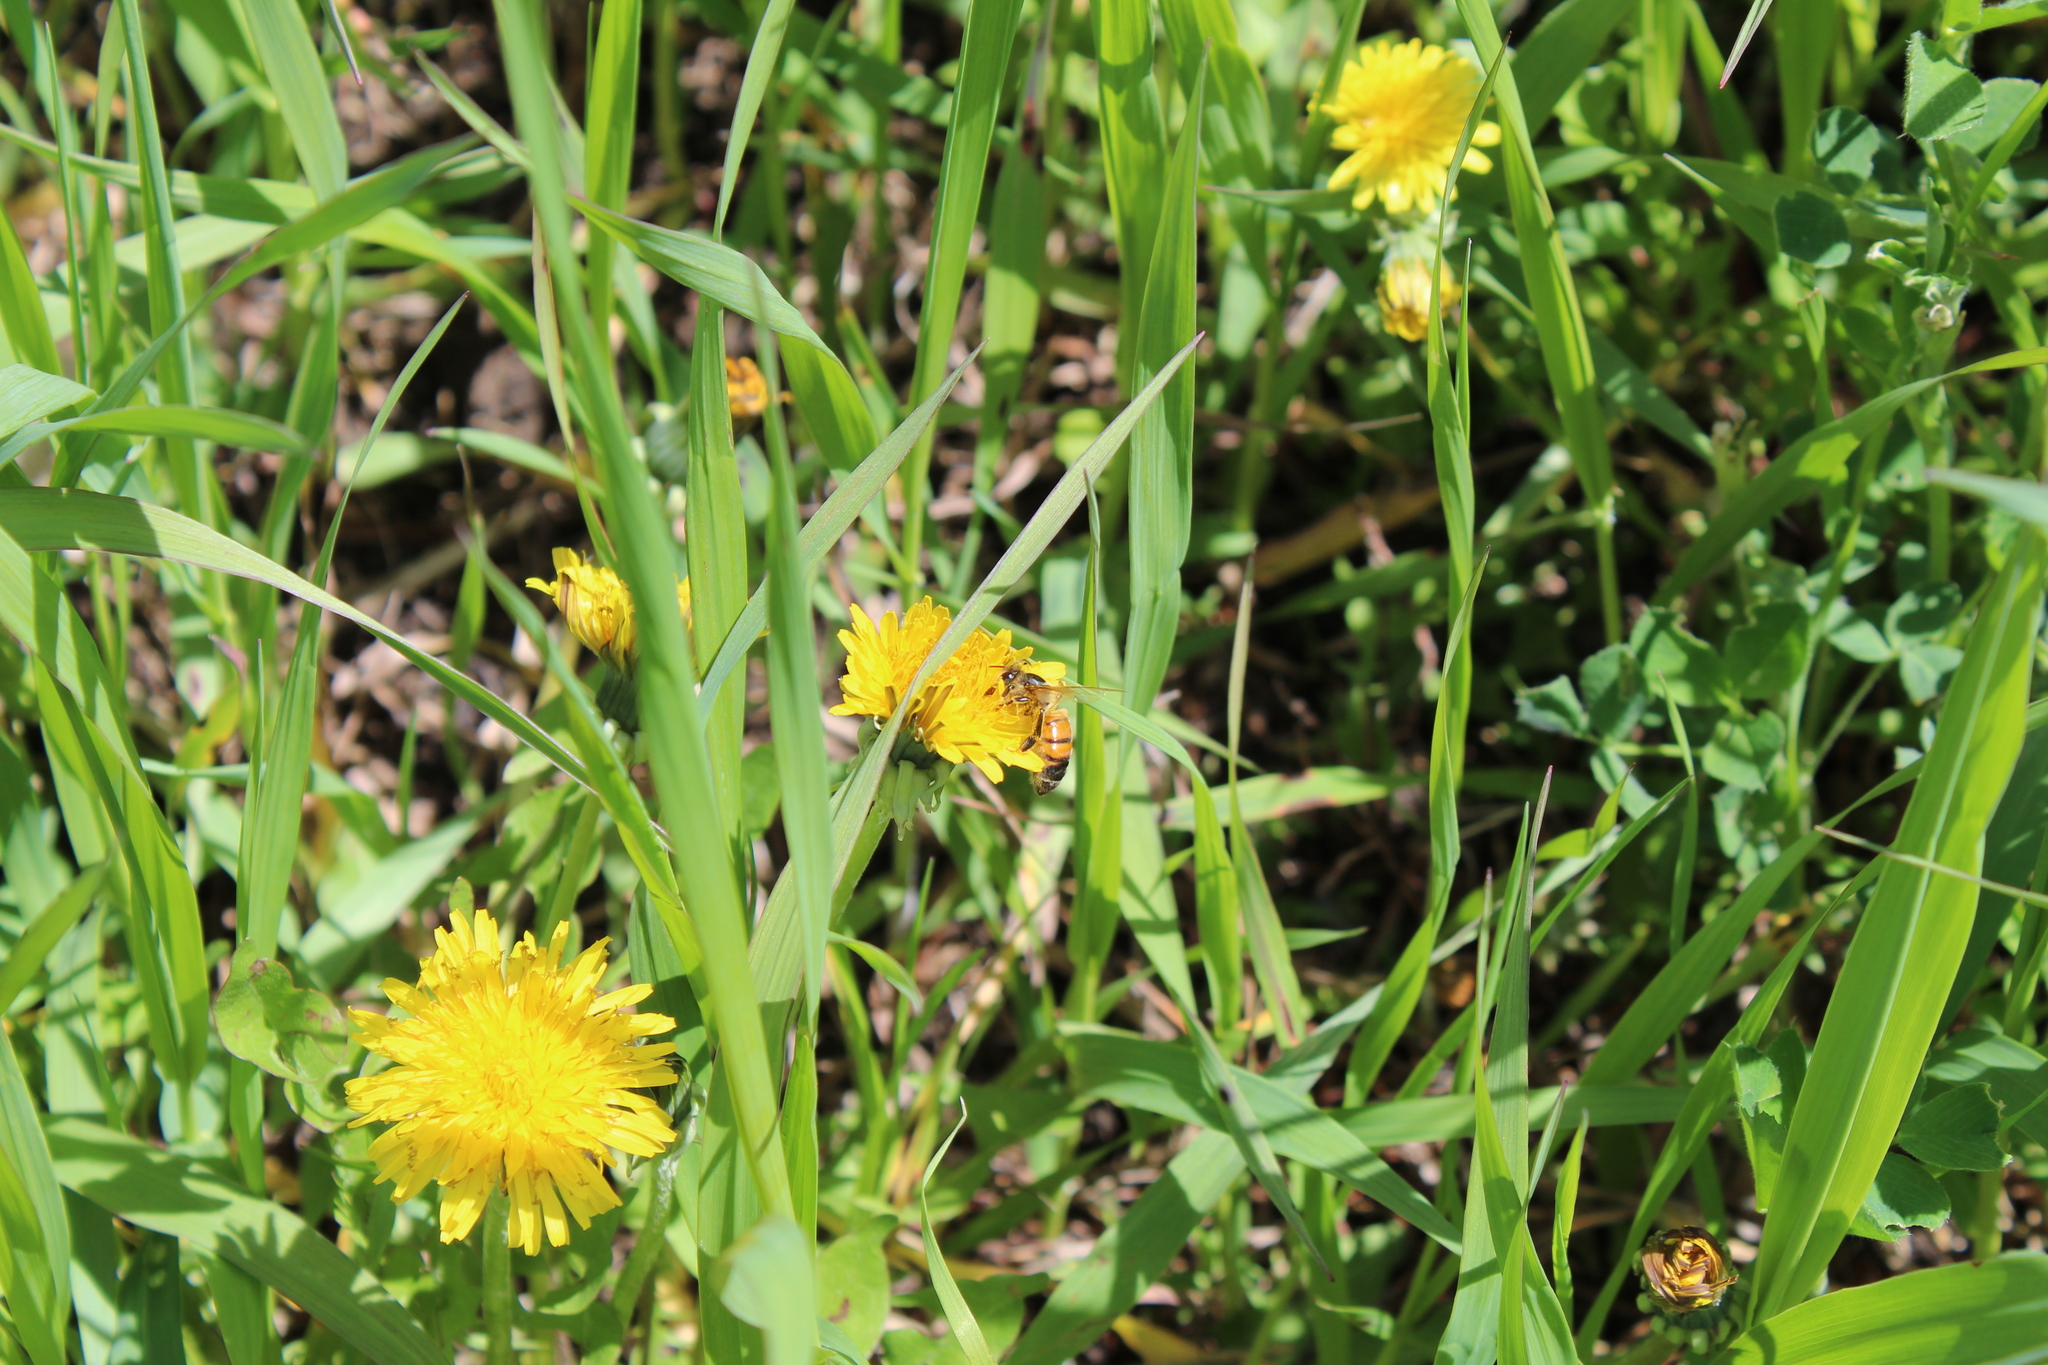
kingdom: Animalia
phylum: Arthropoda
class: Insecta
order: Hymenoptera
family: Apidae
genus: Apis
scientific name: Apis mellifera
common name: Honey bee
